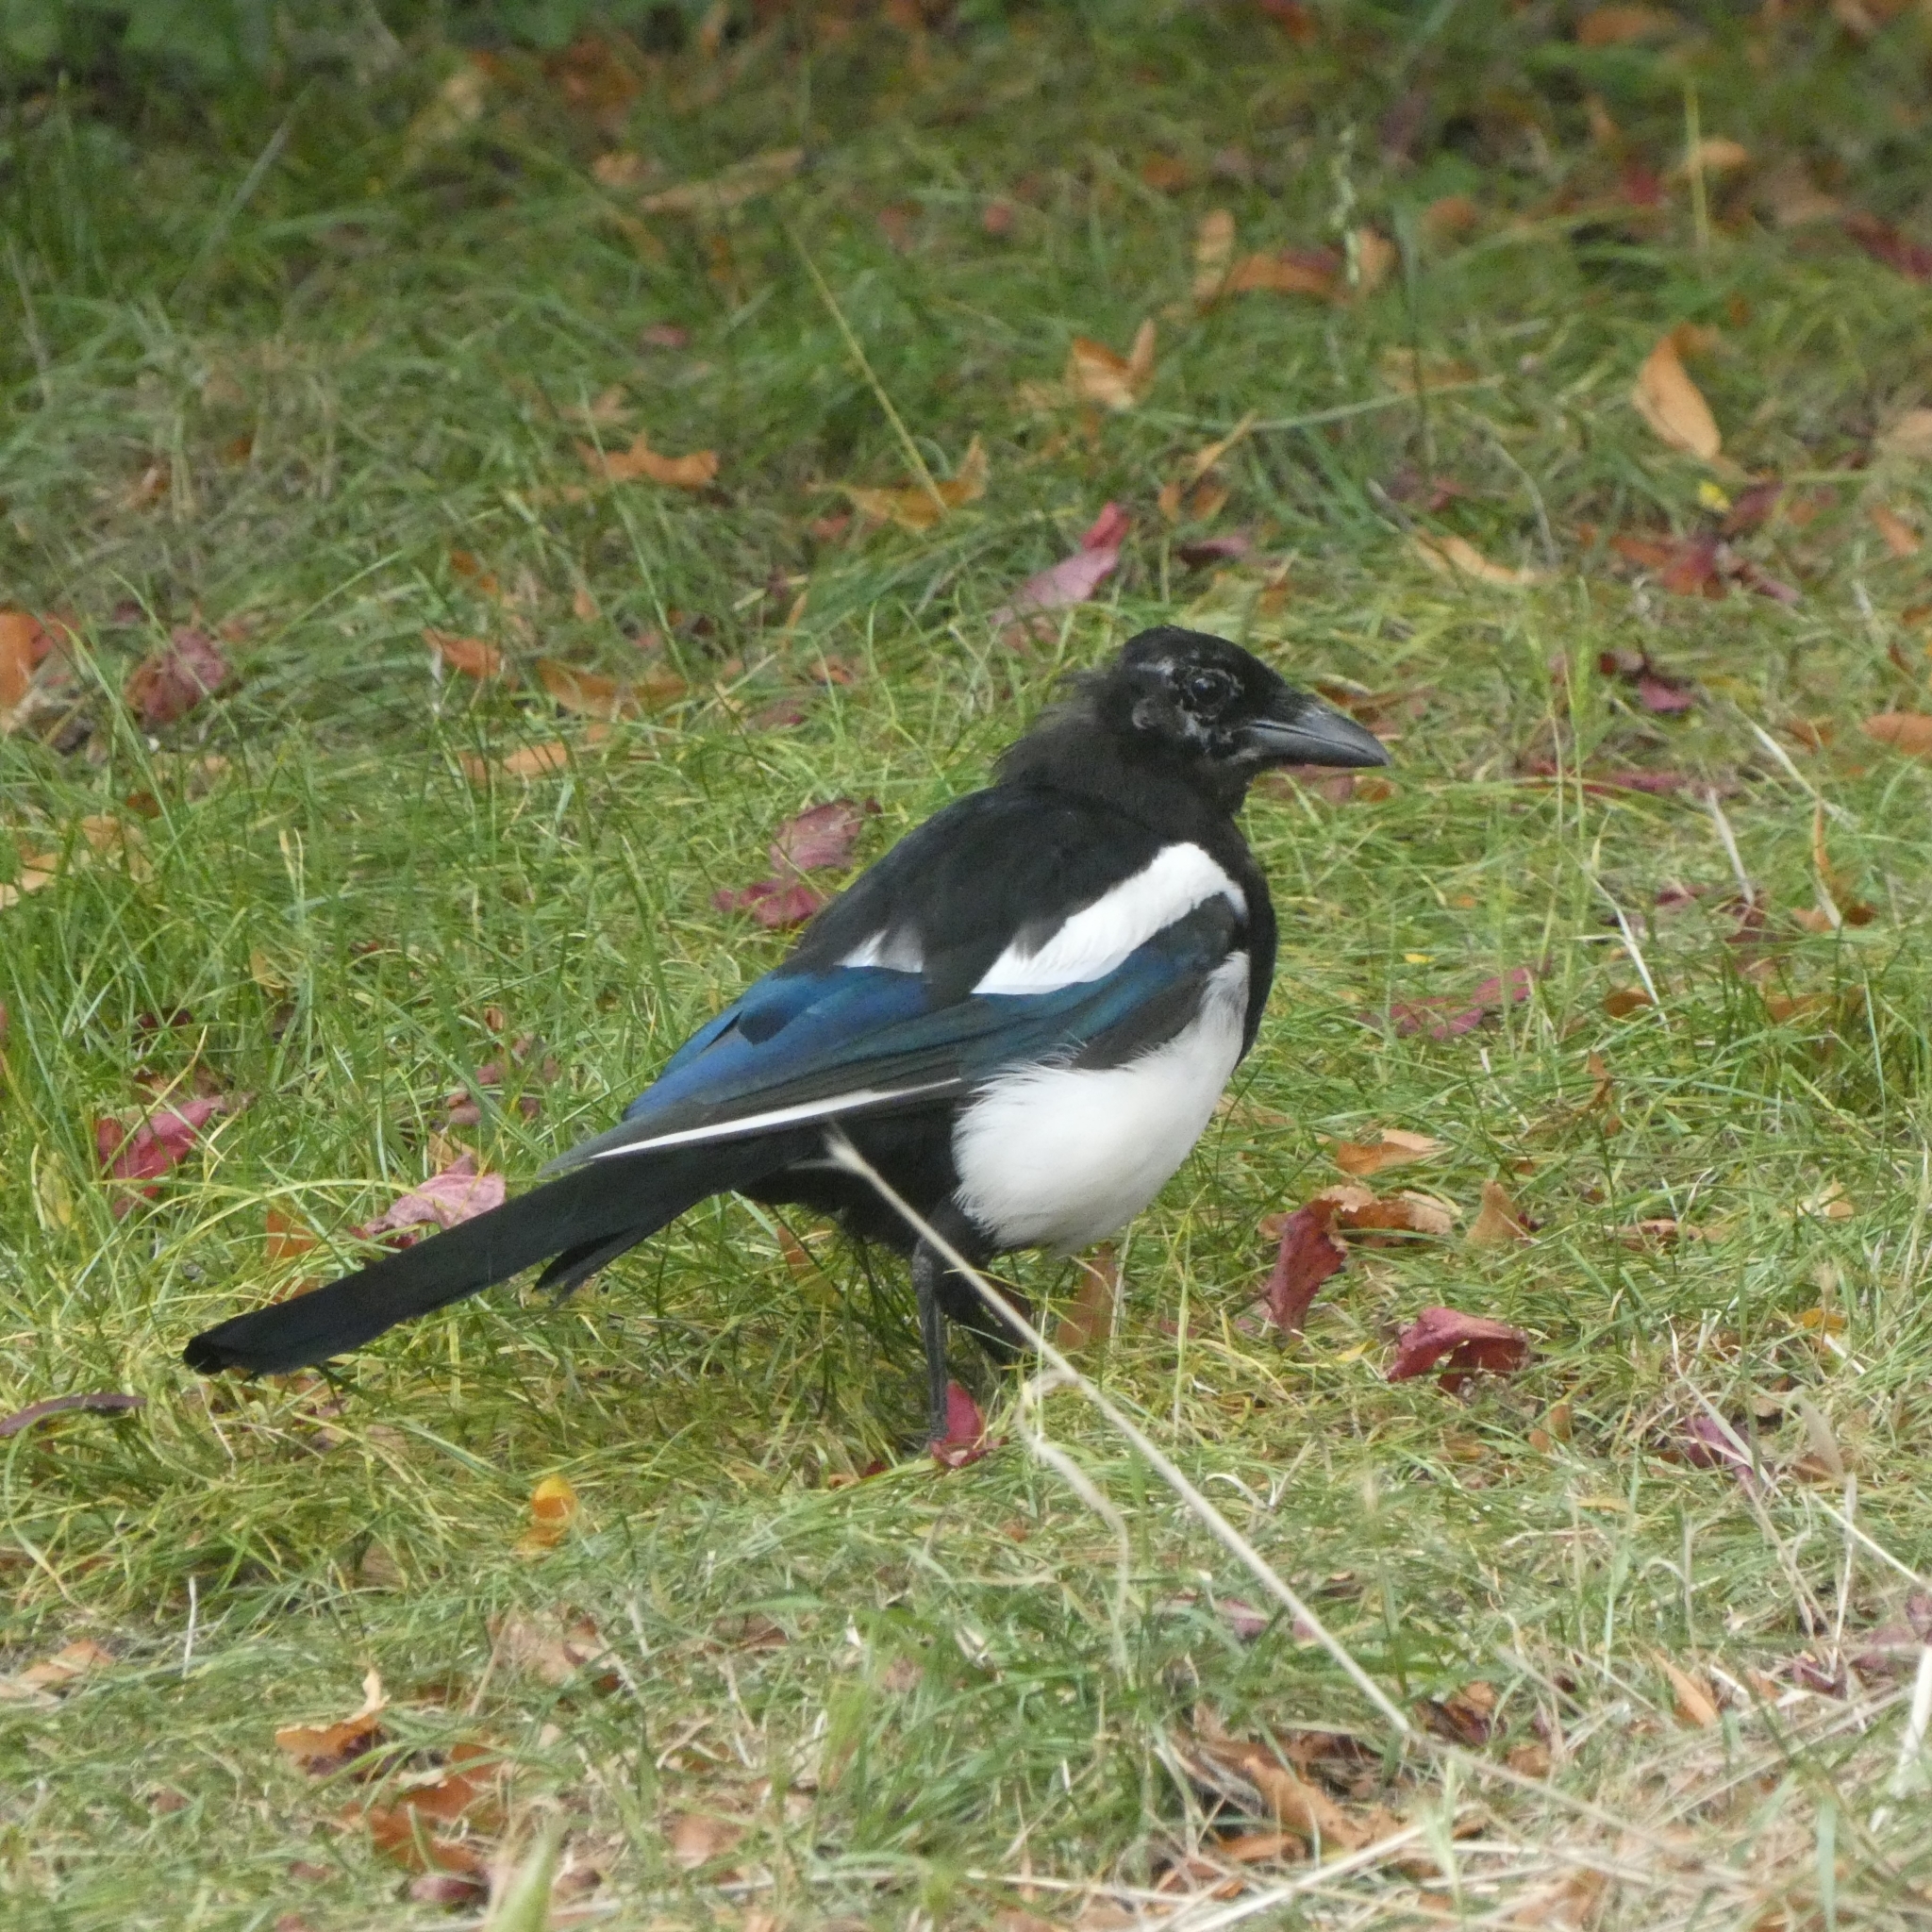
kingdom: Animalia
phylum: Chordata
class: Aves
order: Passeriformes
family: Corvidae
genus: Pica
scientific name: Pica pica
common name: Eurasian magpie
